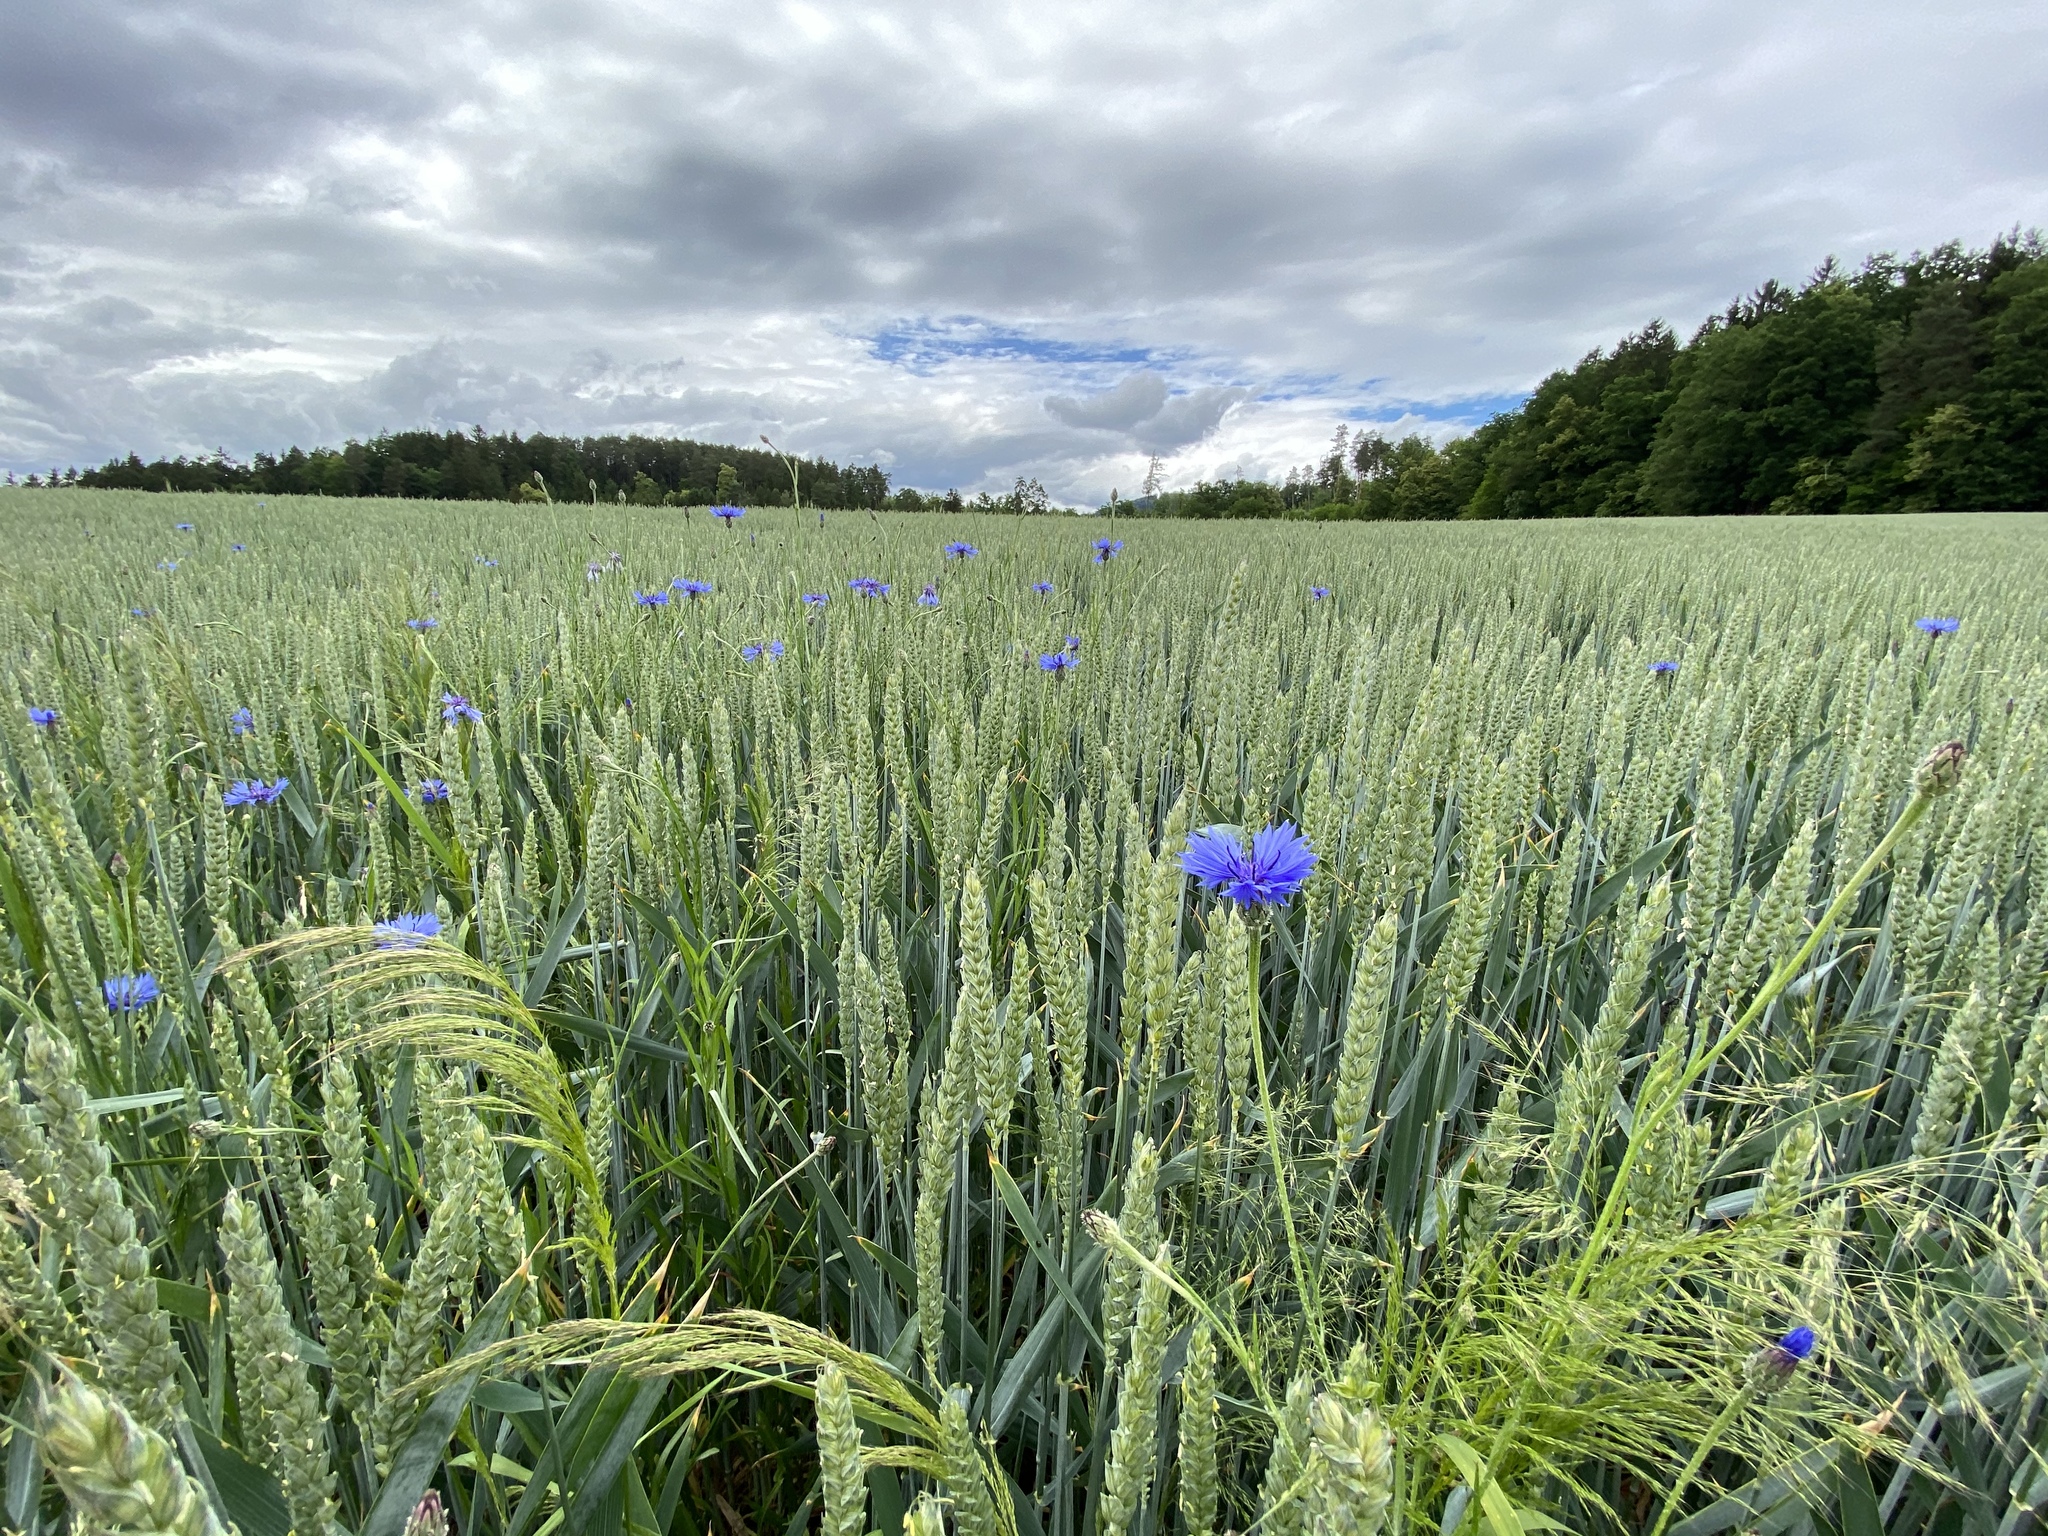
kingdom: Plantae
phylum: Tracheophyta
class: Magnoliopsida
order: Asterales
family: Asteraceae
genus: Centaurea
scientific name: Centaurea cyanus
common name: Cornflower
